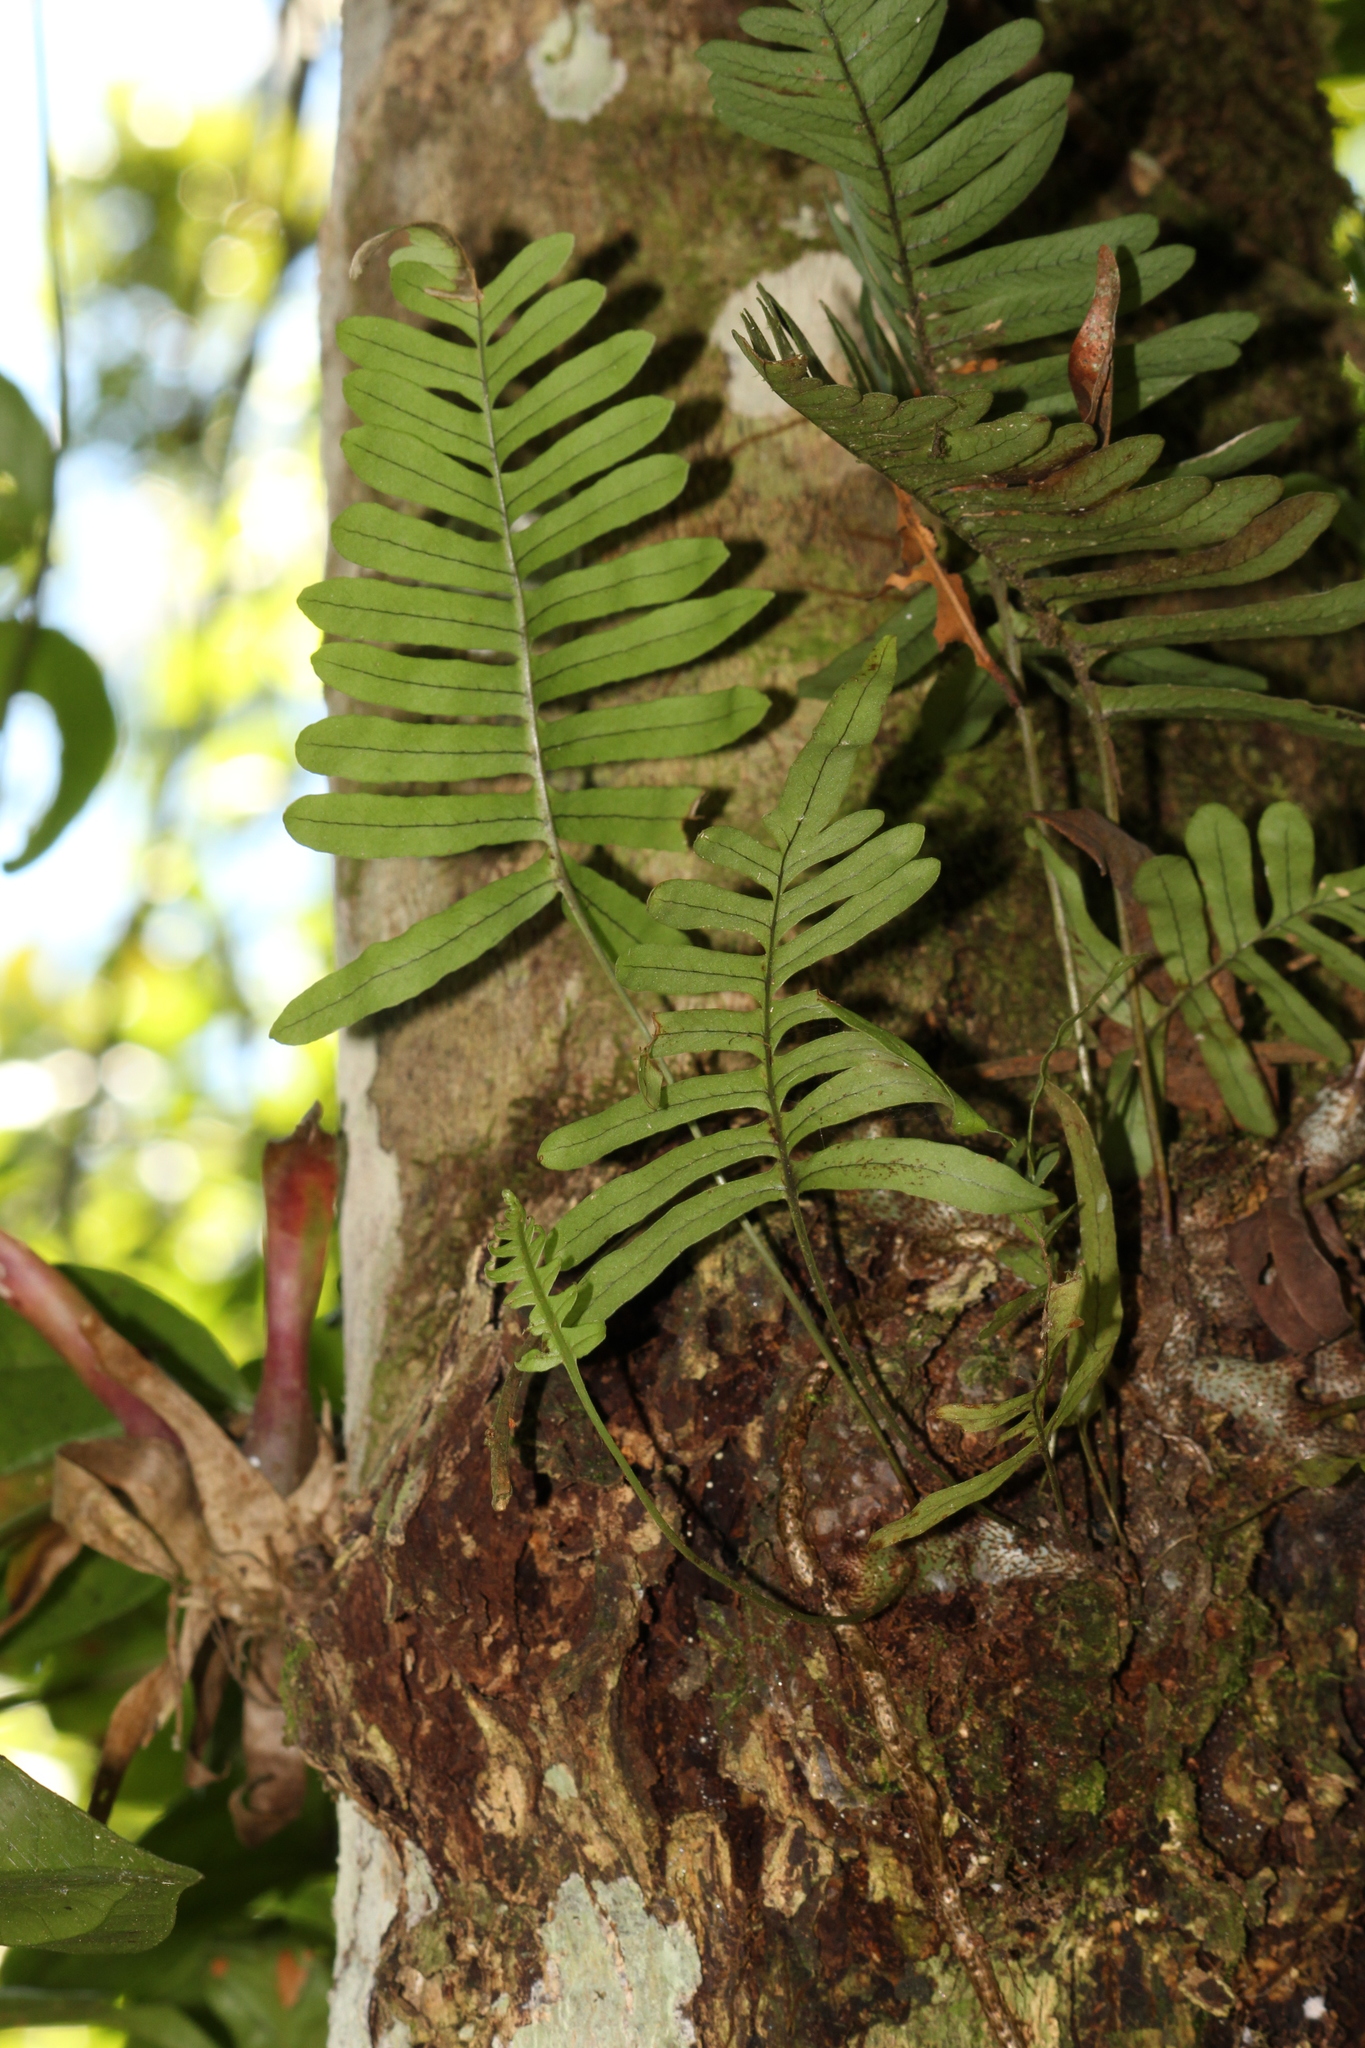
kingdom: Plantae
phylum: Tracheophyta
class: Polypodiopsida
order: Polypodiales
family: Polypodiaceae
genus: Serpocaulon
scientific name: Serpocaulon catharinae
